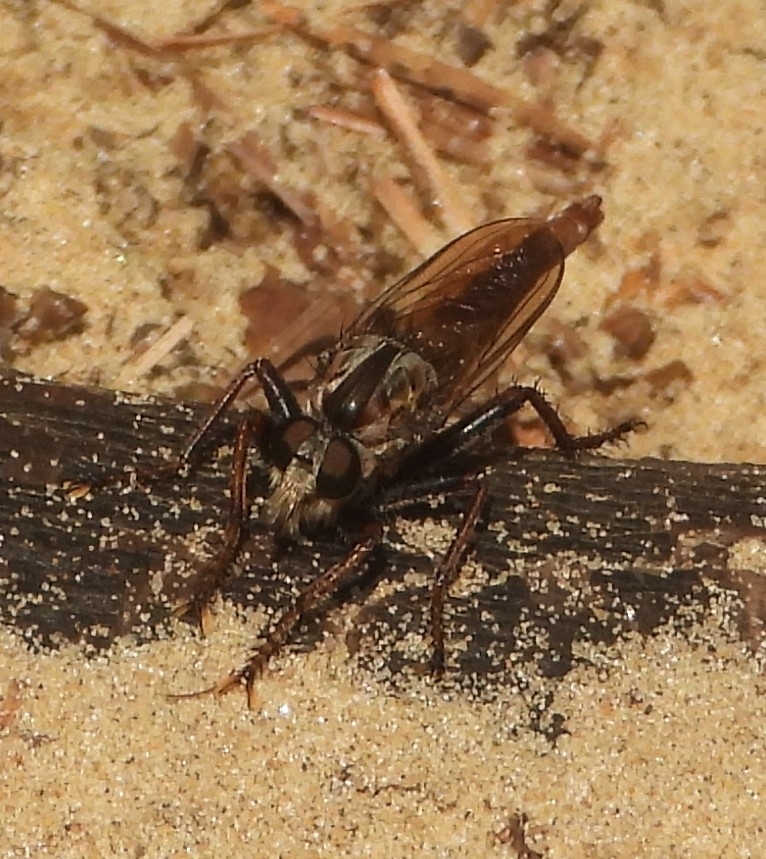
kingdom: Animalia
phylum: Arthropoda
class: Insecta
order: Diptera
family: Asilidae
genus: Proctacanthus
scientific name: Proctacanthus brevipennis
